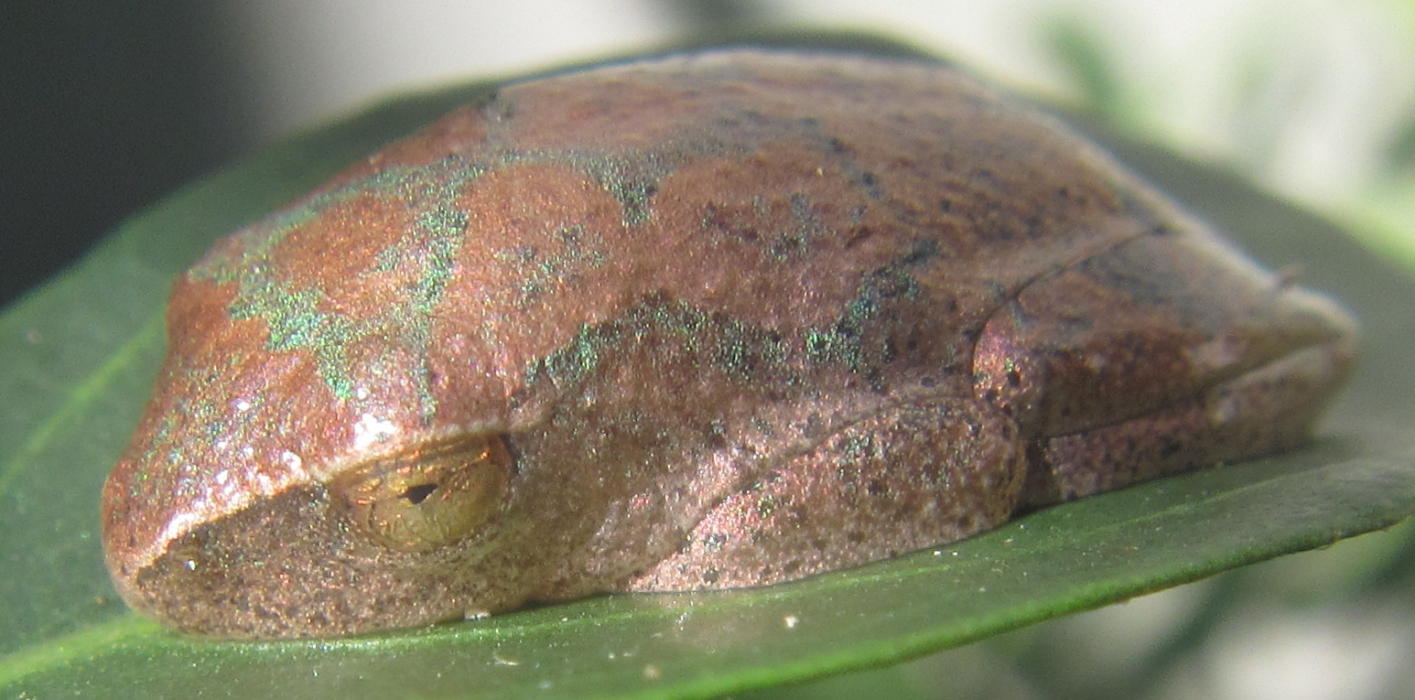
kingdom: Animalia
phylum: Chordata
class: Amphibia
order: Anura
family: Hyperoliidae
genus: Hyperolius
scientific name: Hyperolius tuberilinguis
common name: Tinker reed frog
